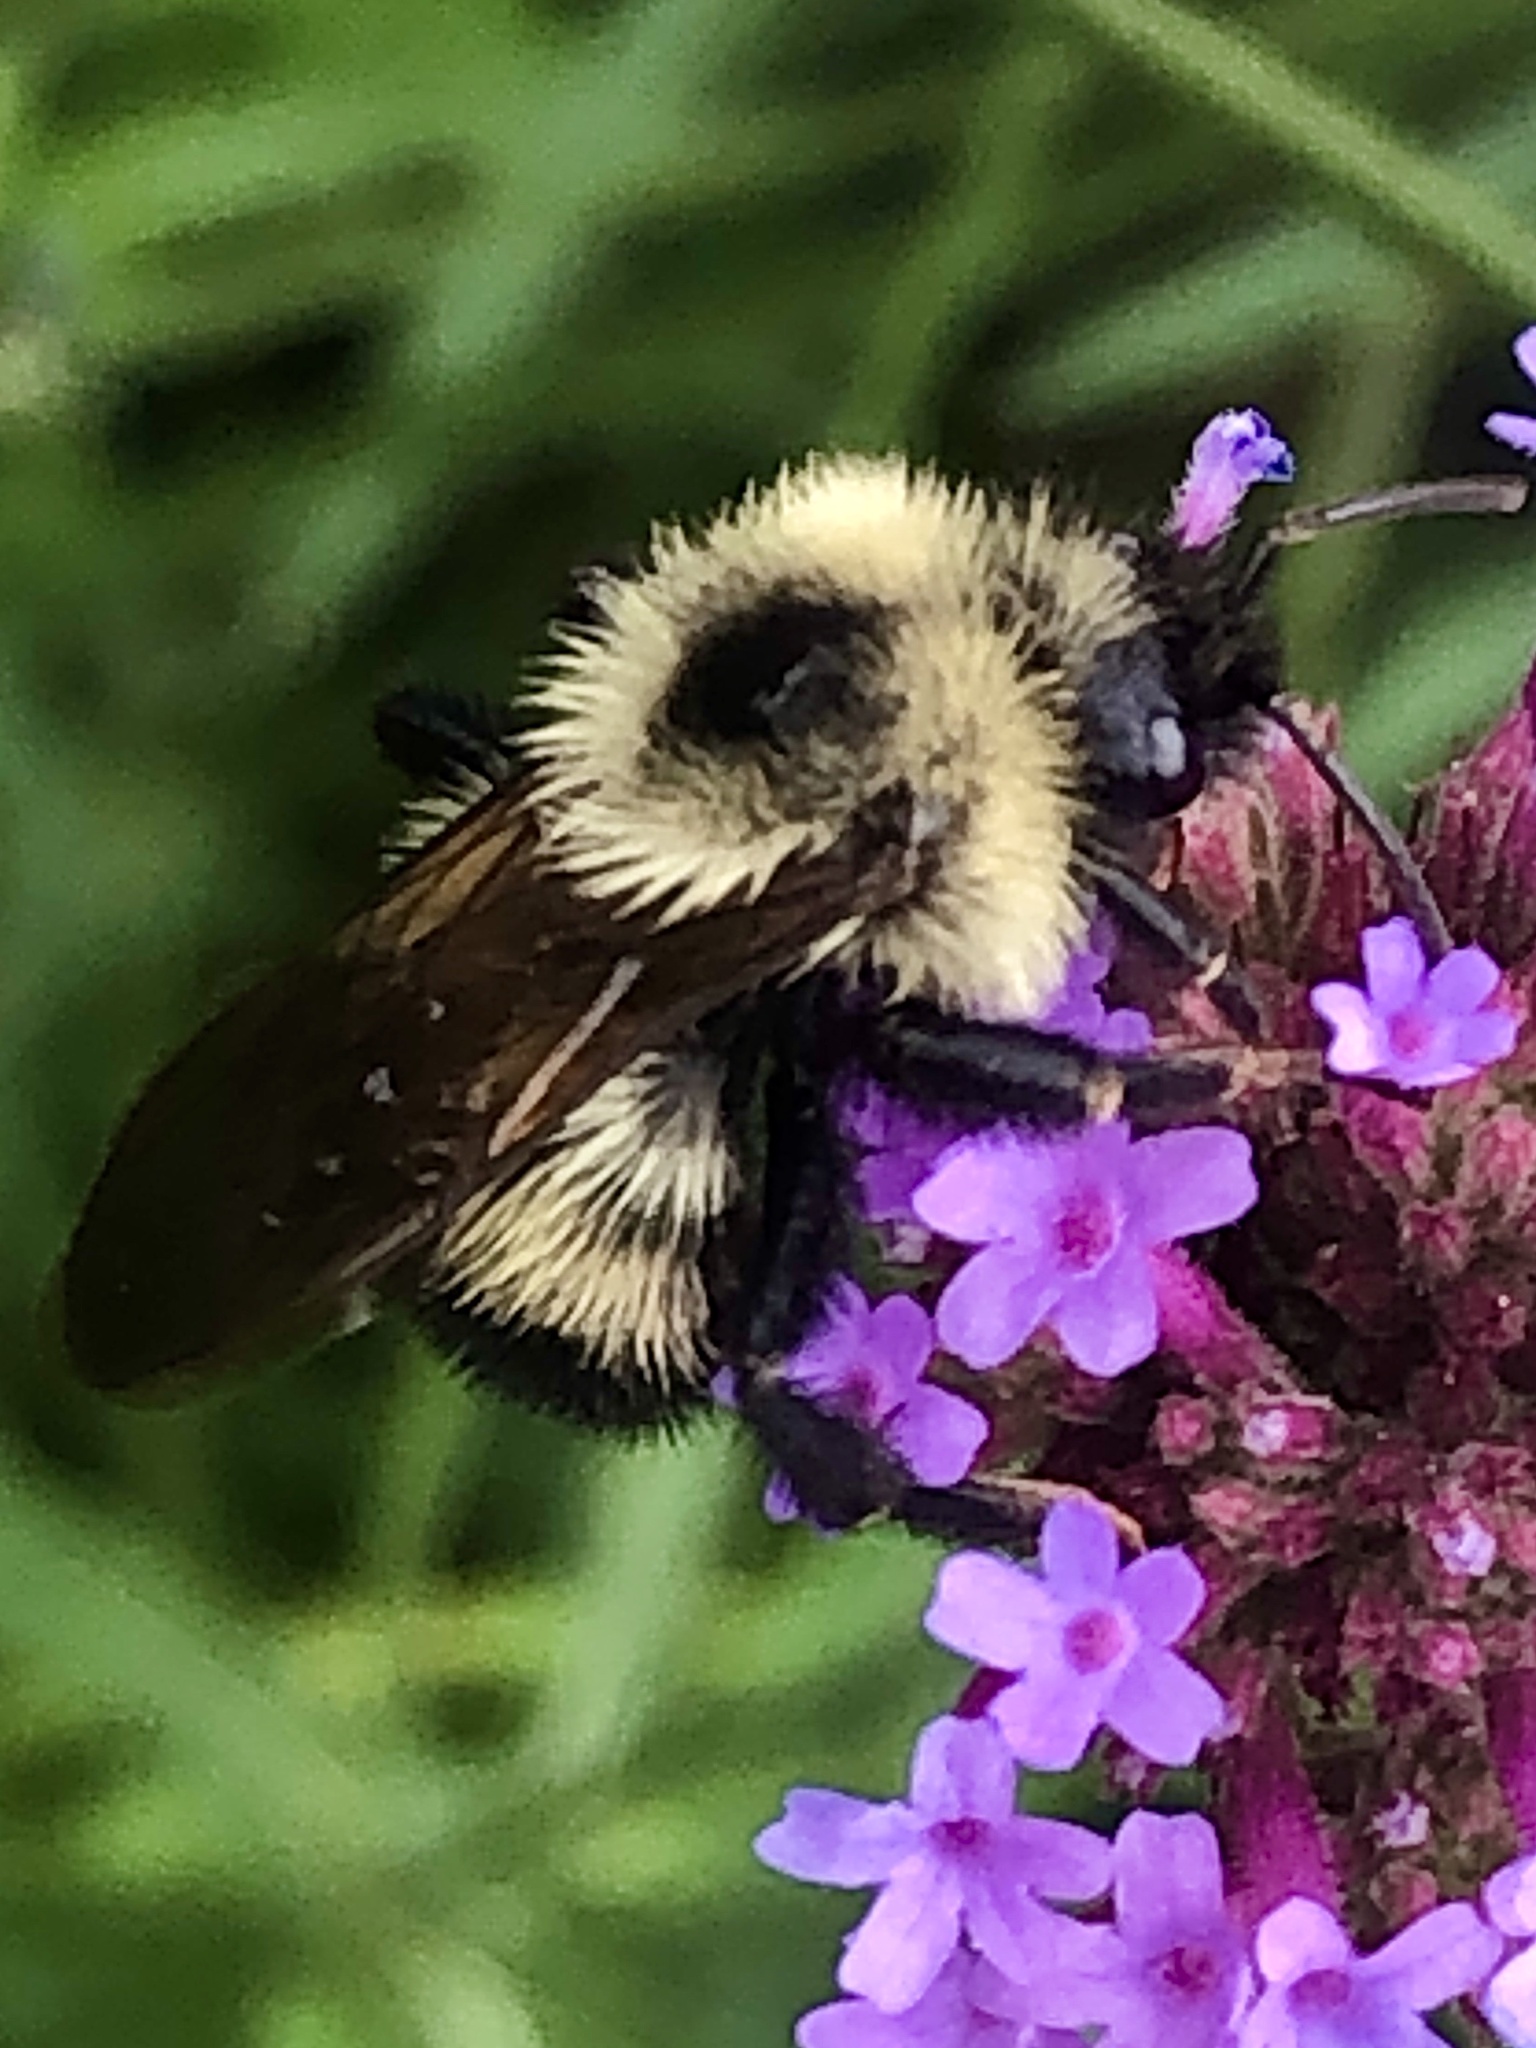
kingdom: Animalia
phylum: Arthropoda
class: Insecta
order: Hymenoptera
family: Apidae
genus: Bombus
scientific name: Bombus citrinus
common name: Lemon cuckoo bumble bee
